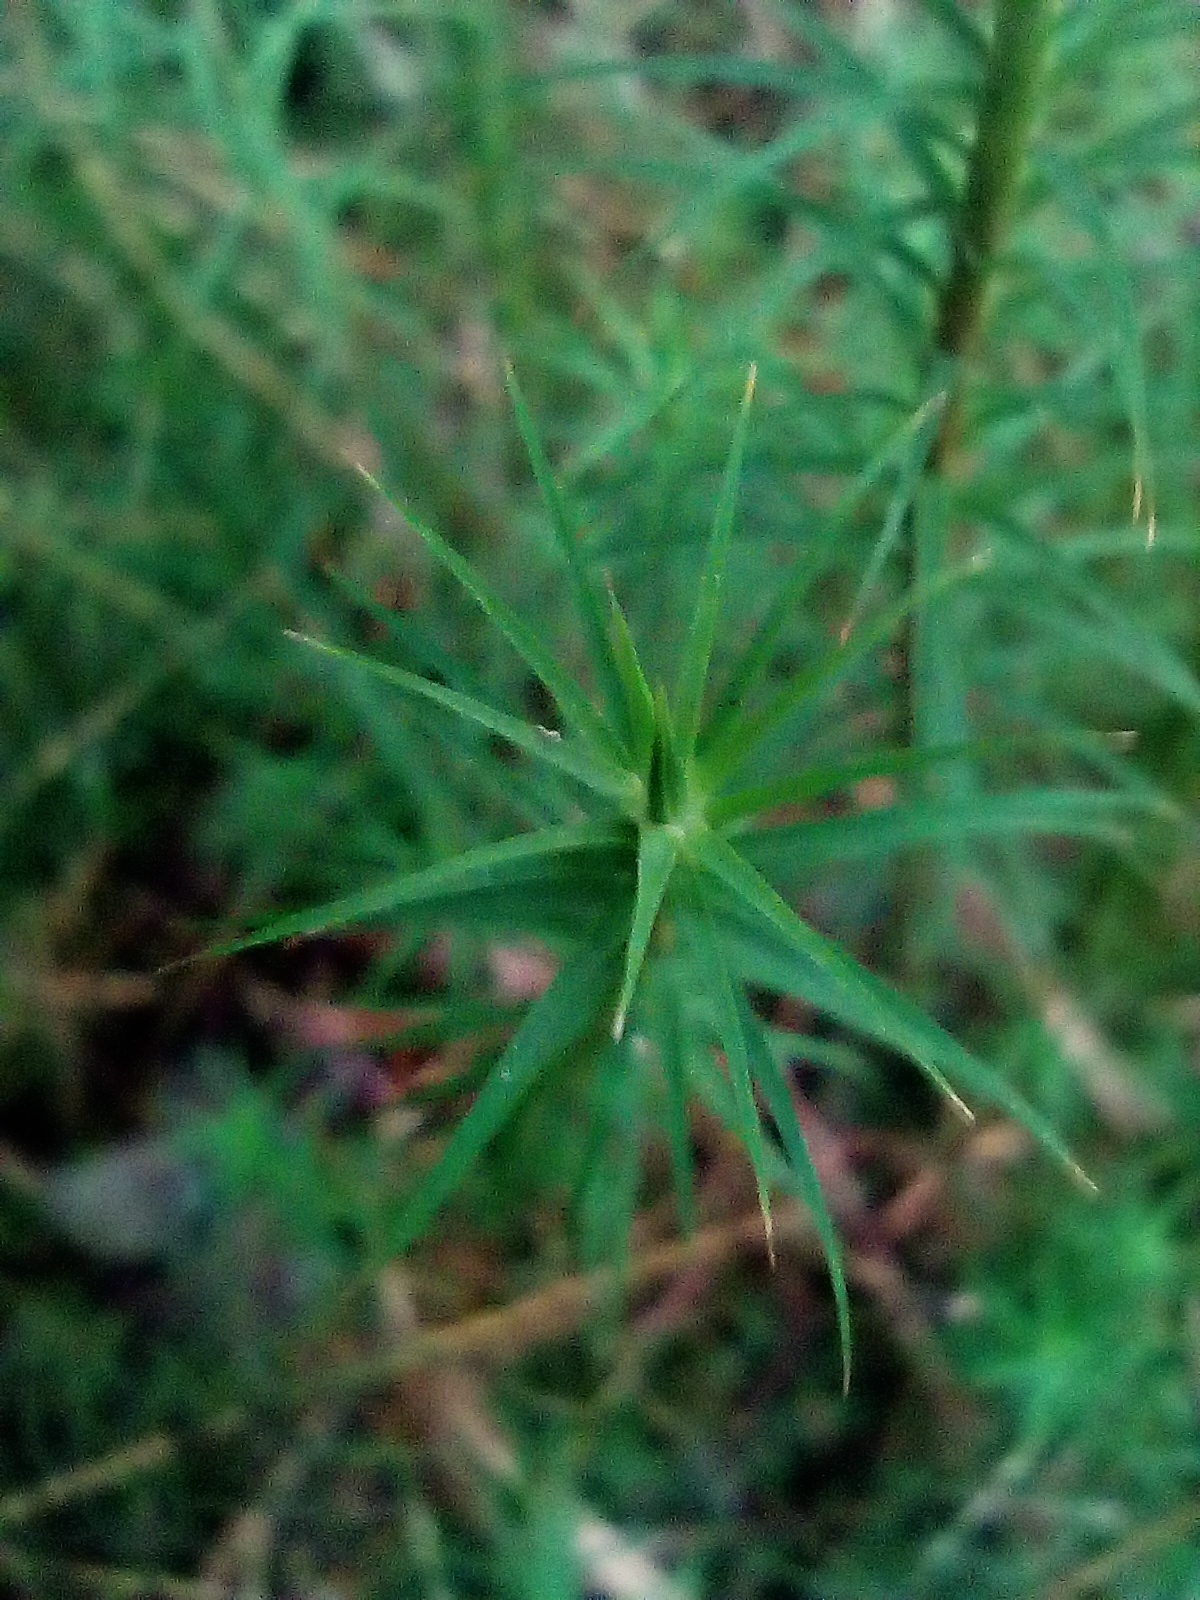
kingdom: Plantae
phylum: Bryophyta
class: Polytrichopsida
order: Polytrichales
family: Polytrichaceae
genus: Polytrichum
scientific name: Polytrichum commune
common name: Common haircap
